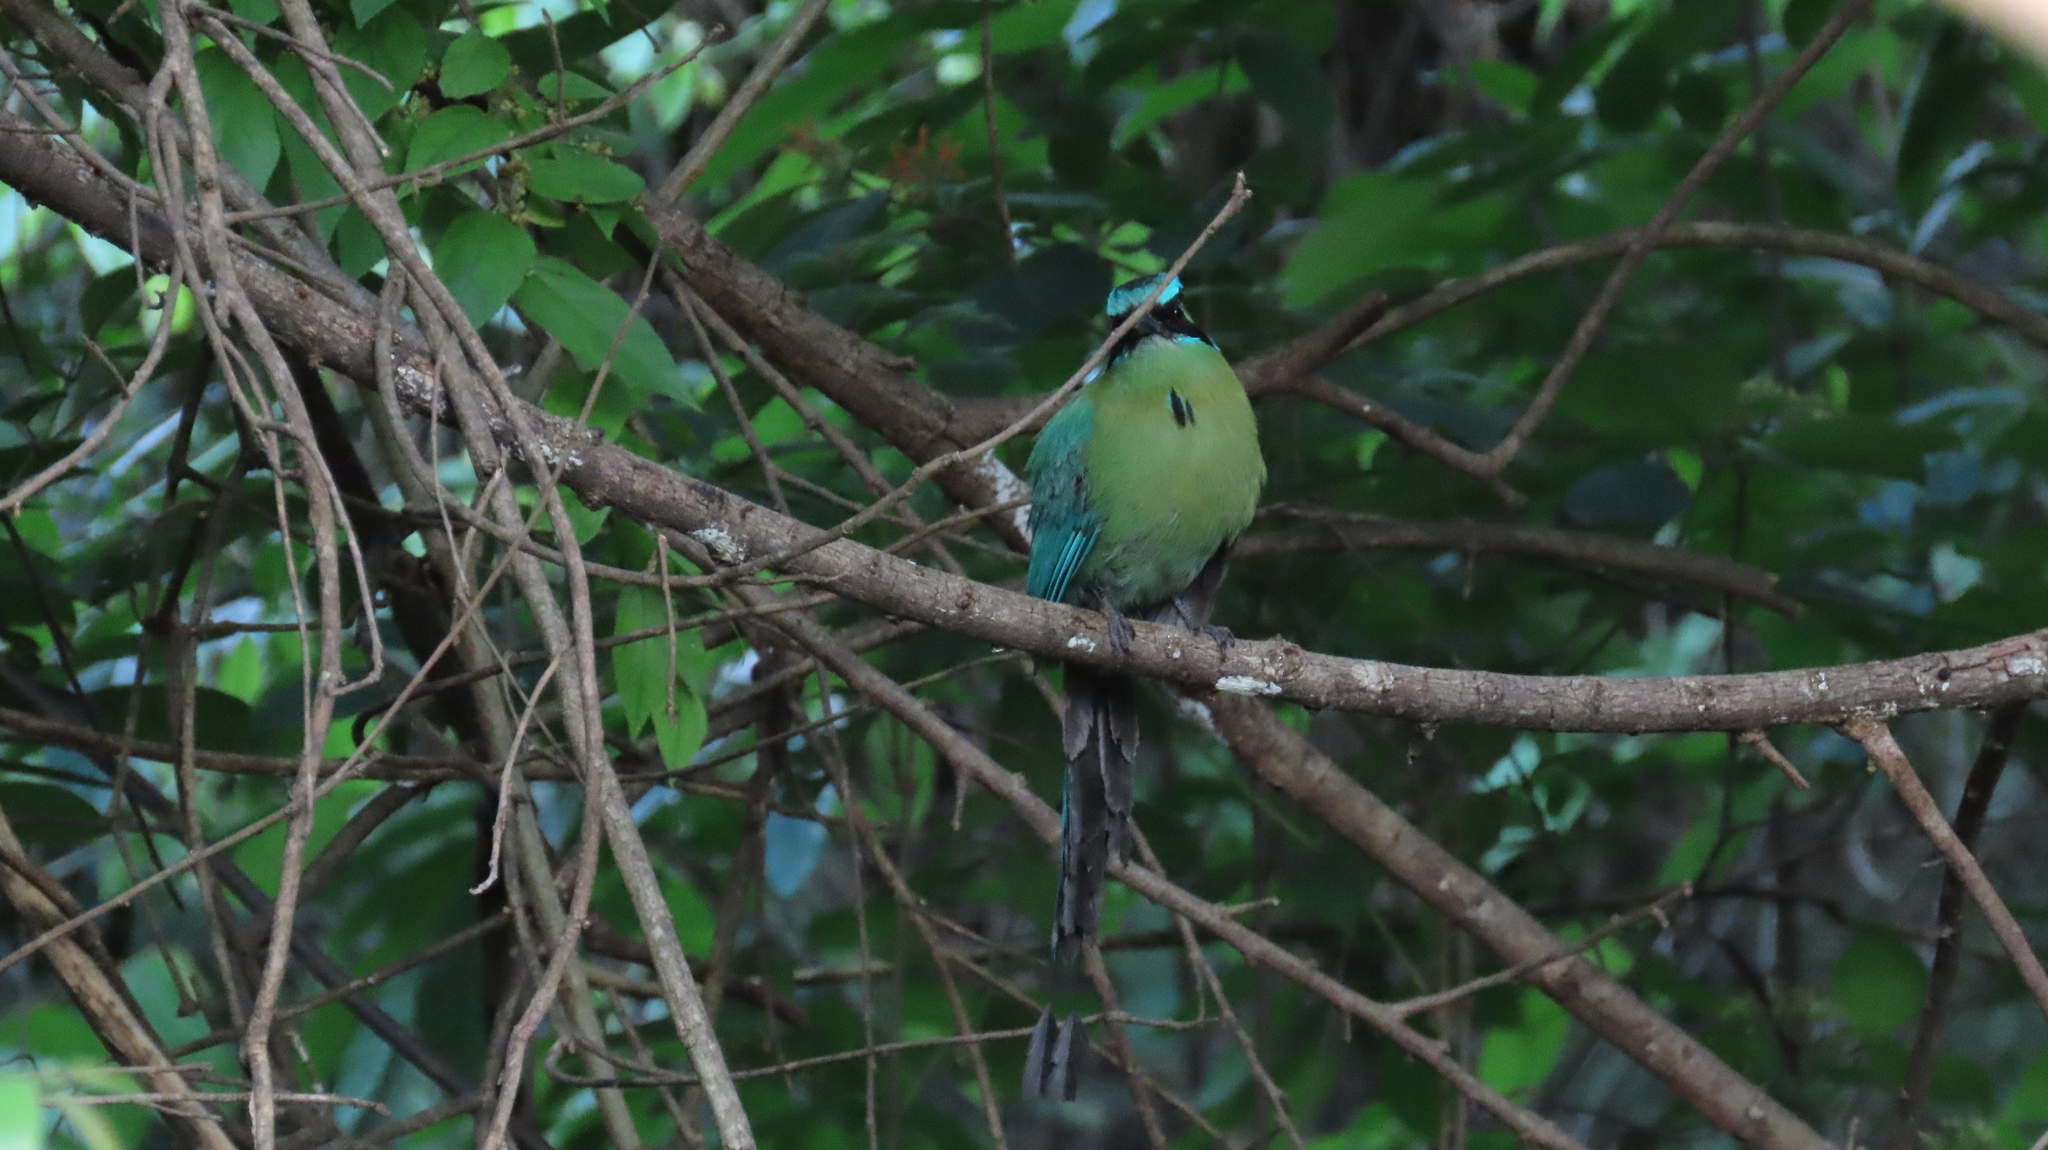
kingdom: Animalia
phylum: Chordata
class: Aves
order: Coraciiformes
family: Momotidae
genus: Momotus
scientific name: Momotus lessonii
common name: Lesson's motmot
